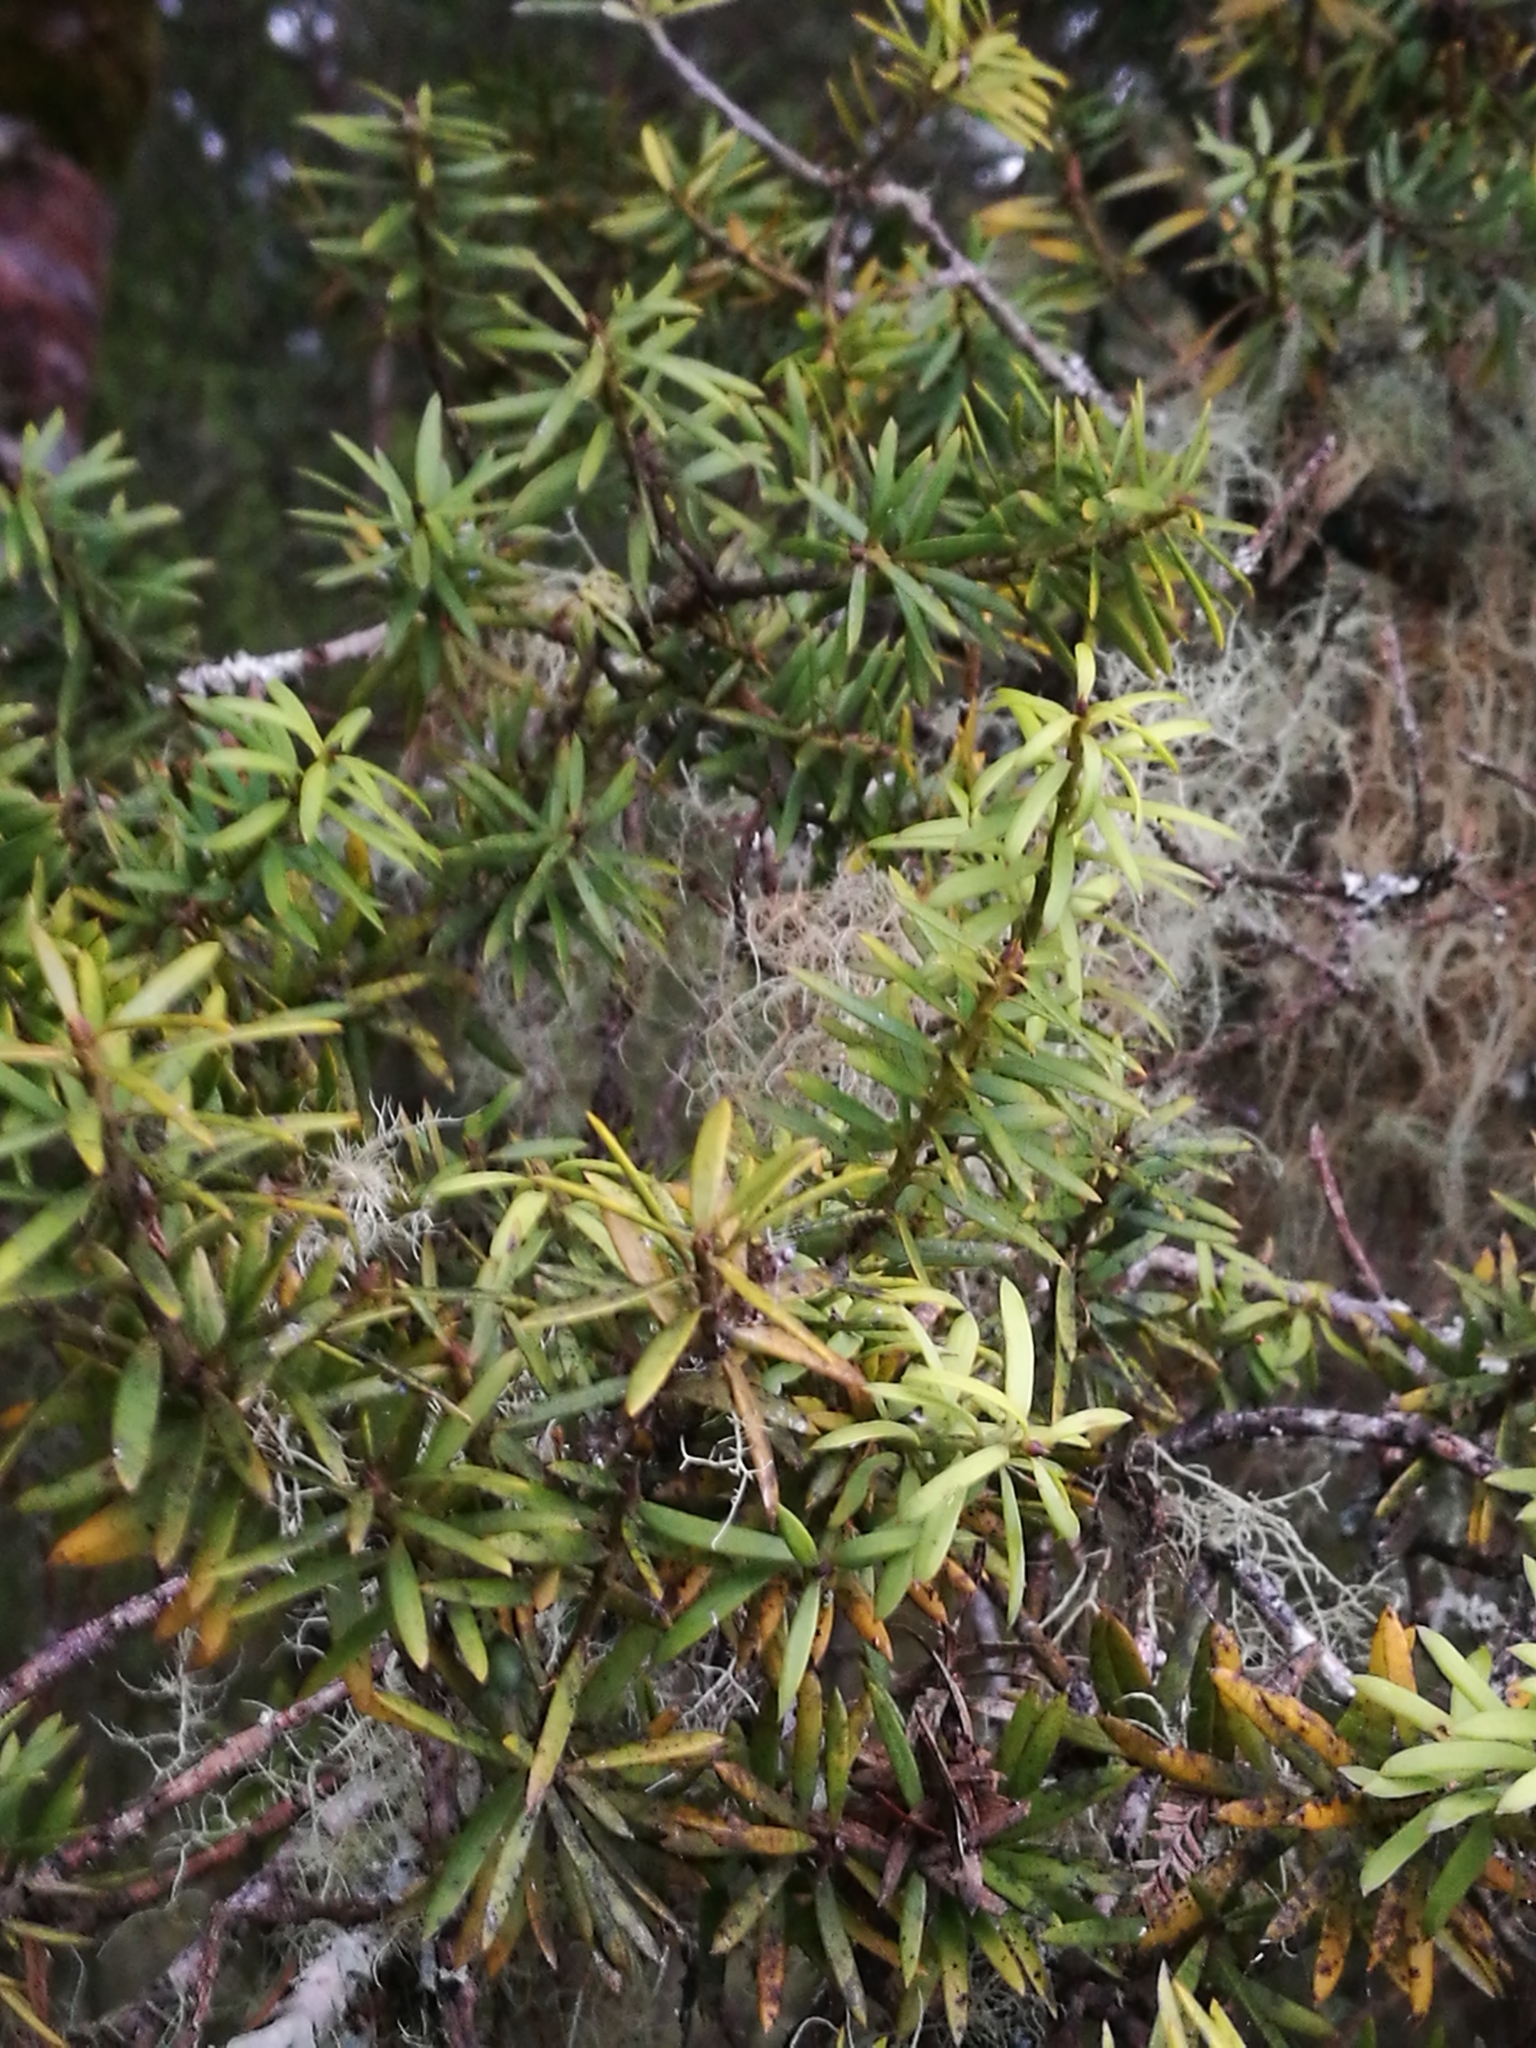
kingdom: Plantae
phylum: Tracheophyta
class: Pinopsida
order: Pinales
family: Podocarpaceae
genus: Podocarpus
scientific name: Podocarpus totara
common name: Totara
